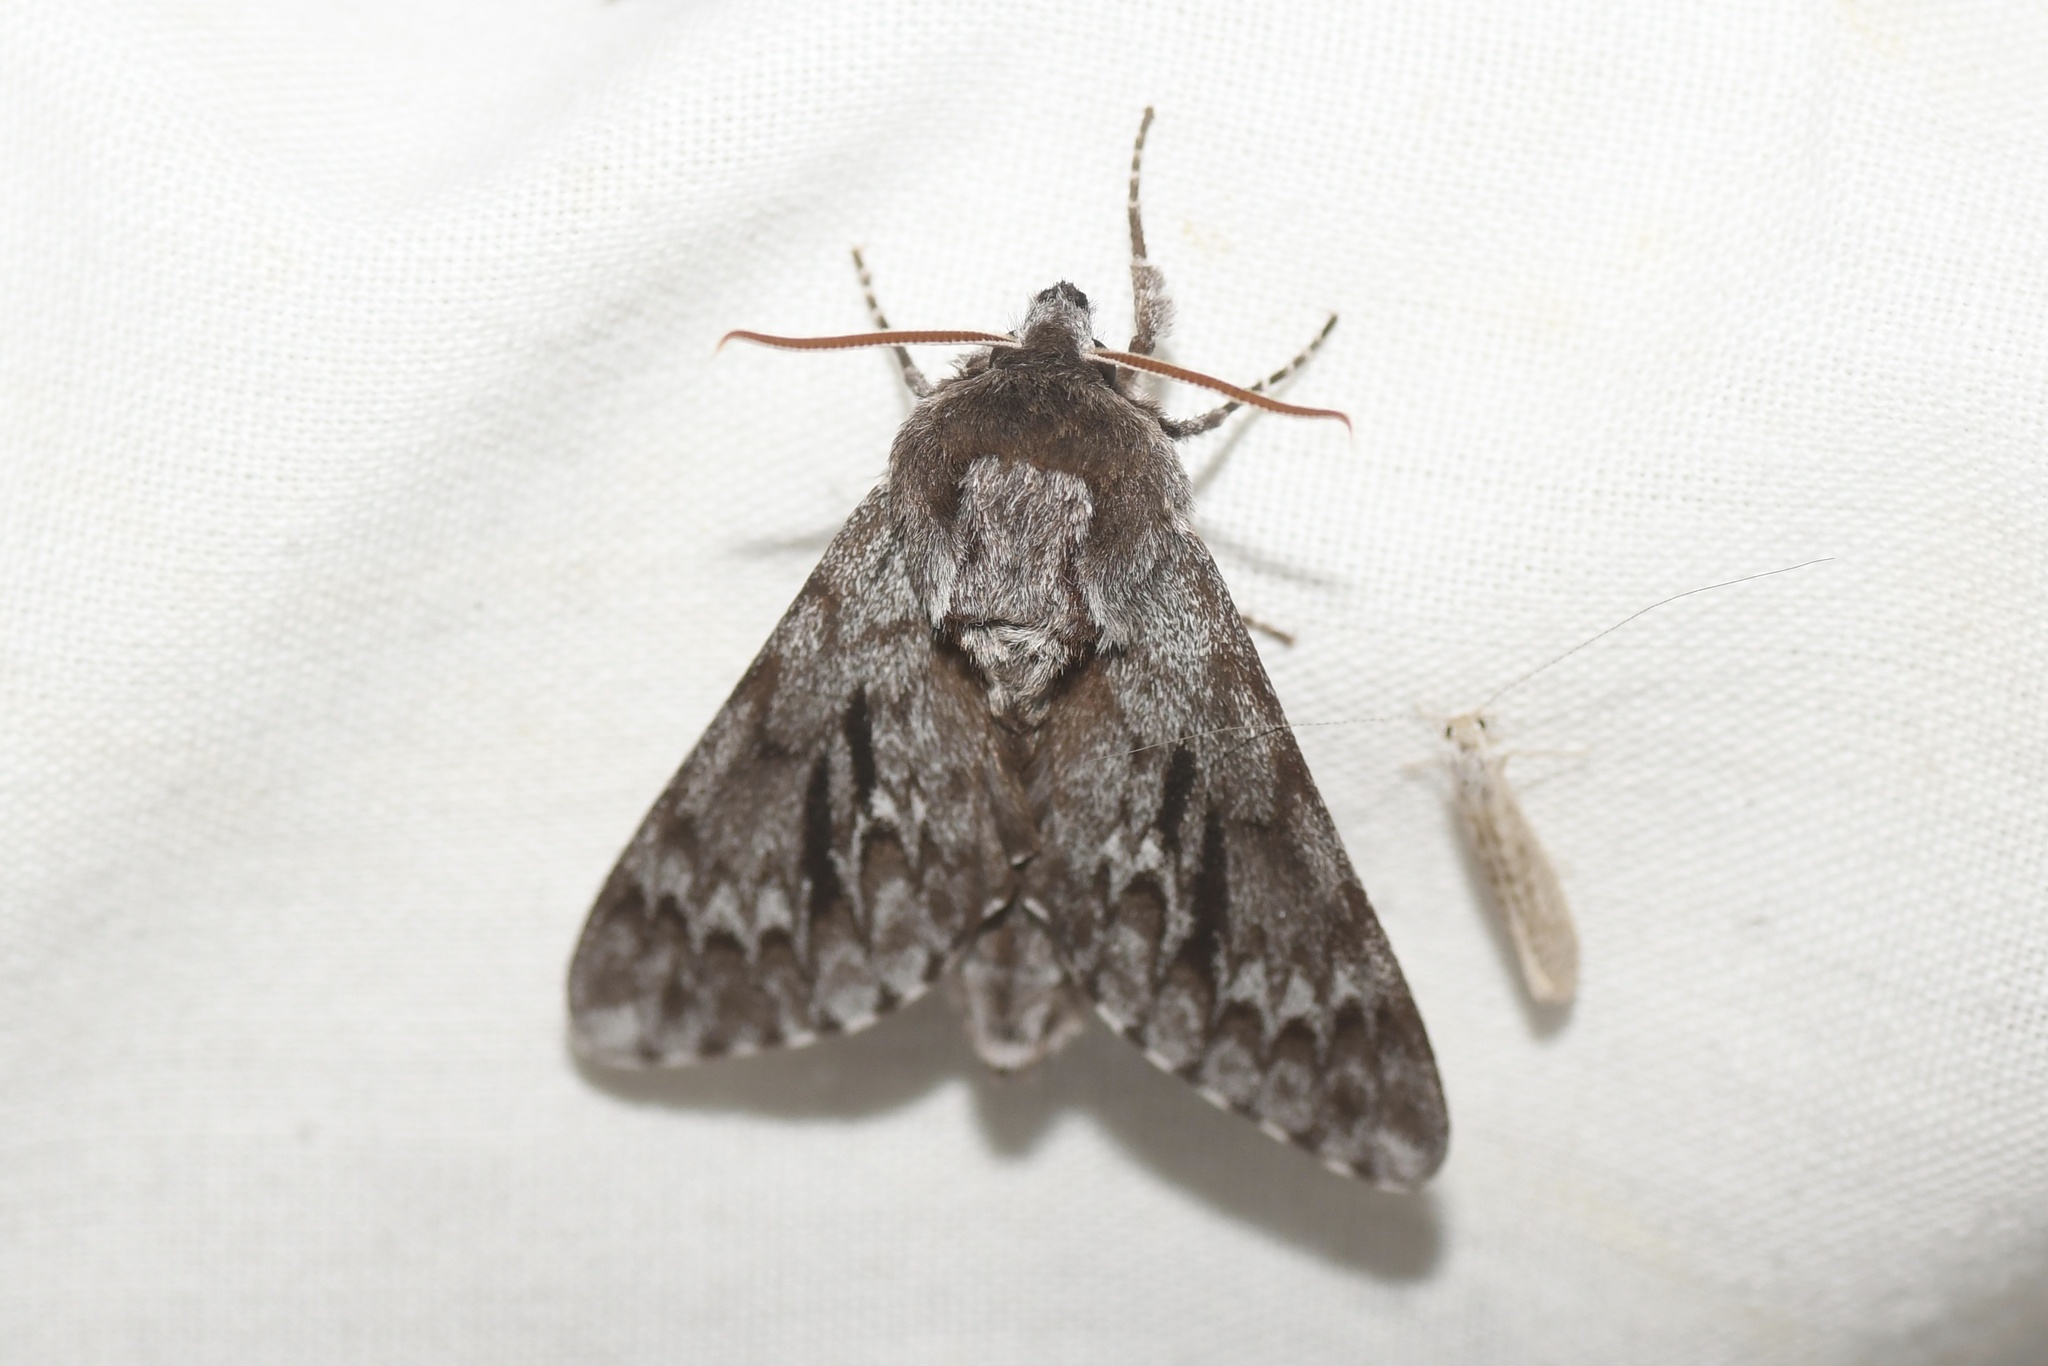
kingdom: Animalia
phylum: Arthropoda
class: Insecta
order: Lepidoptera
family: Sphingidae
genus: Lapara
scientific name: Lapara bombycoides
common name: Northern pine sphinx
